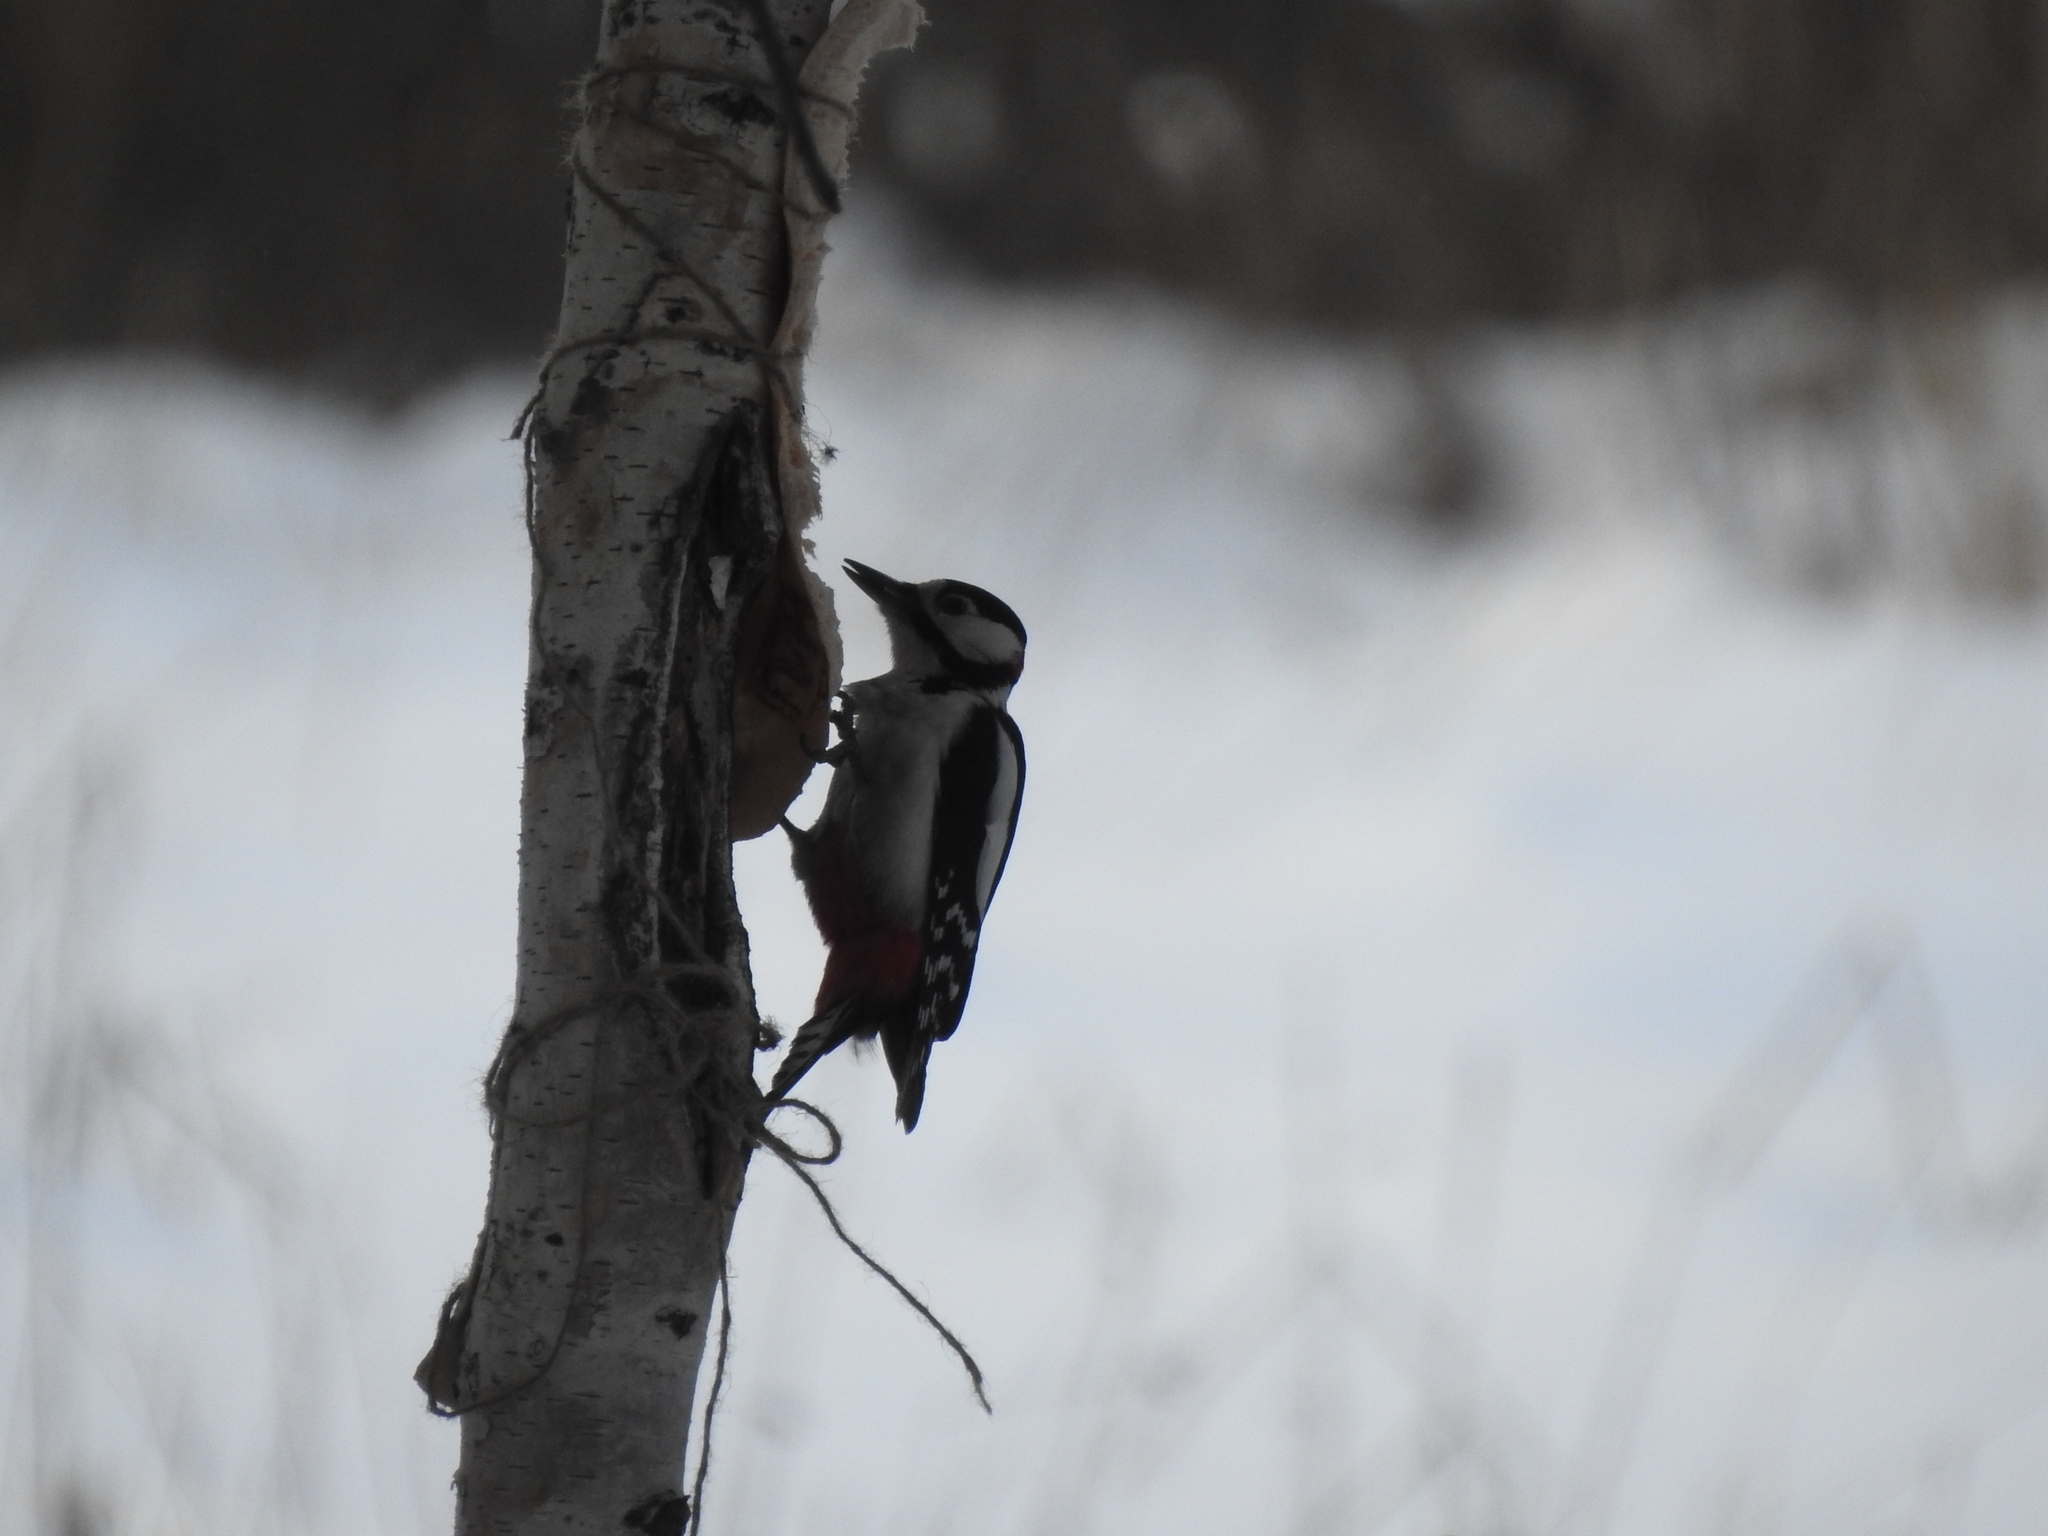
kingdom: Animalia
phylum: Chordata
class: Aves
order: Piciformes
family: Picidae
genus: Dendrocopos
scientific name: Dendrocopos major
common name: Great spotted woodpecker
